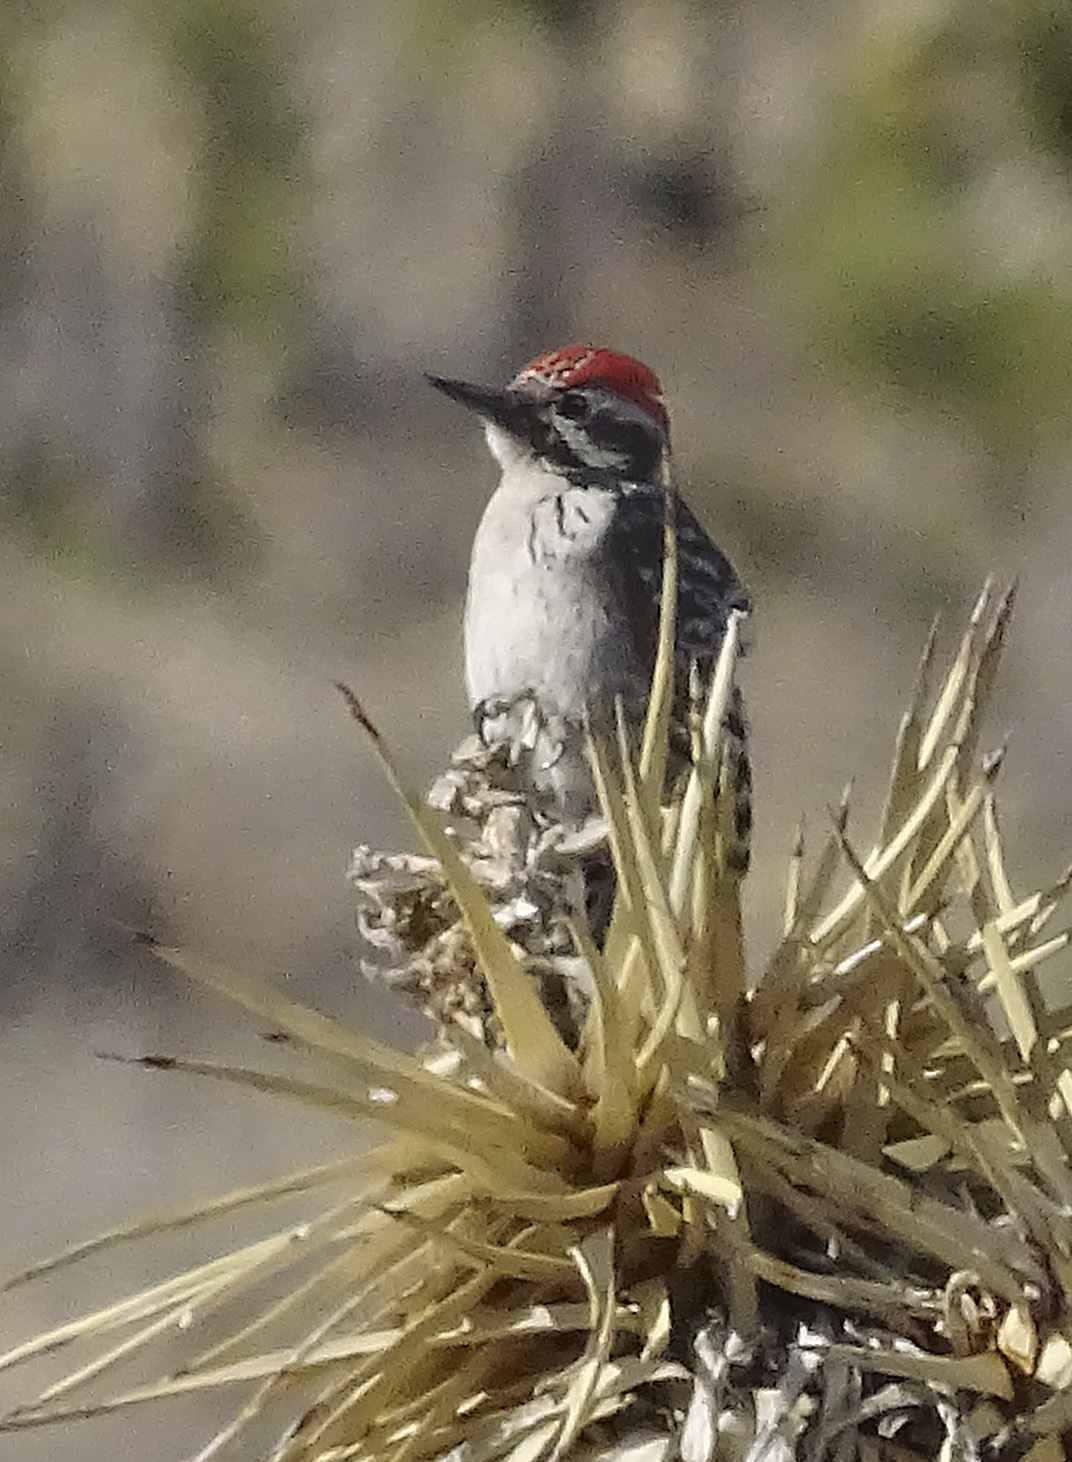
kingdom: Animalia
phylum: Chordata
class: Aves
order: Piciformes
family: Picidae
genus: Dryobates
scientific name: Dryobates scalaris
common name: Ladder-backed woodpecker
